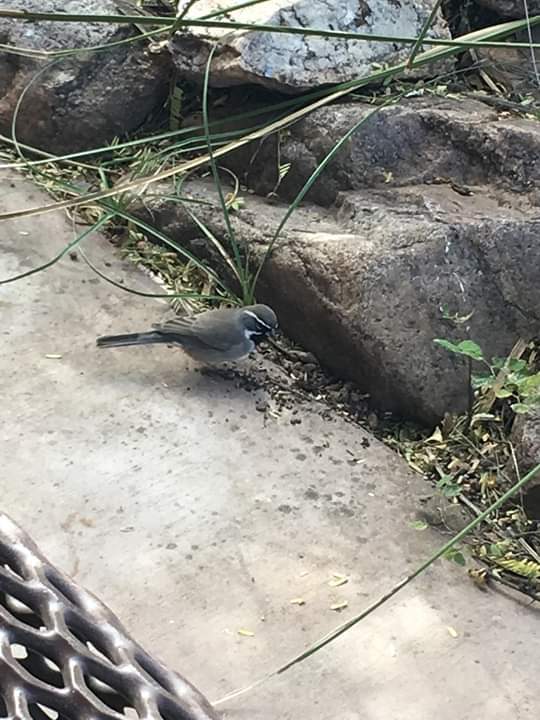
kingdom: Animalia
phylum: Chordata
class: Aves
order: Passeriformes
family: Passerellidae
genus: Amphispiza
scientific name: Amphispiza bilineata
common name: Black-throated sparrow
